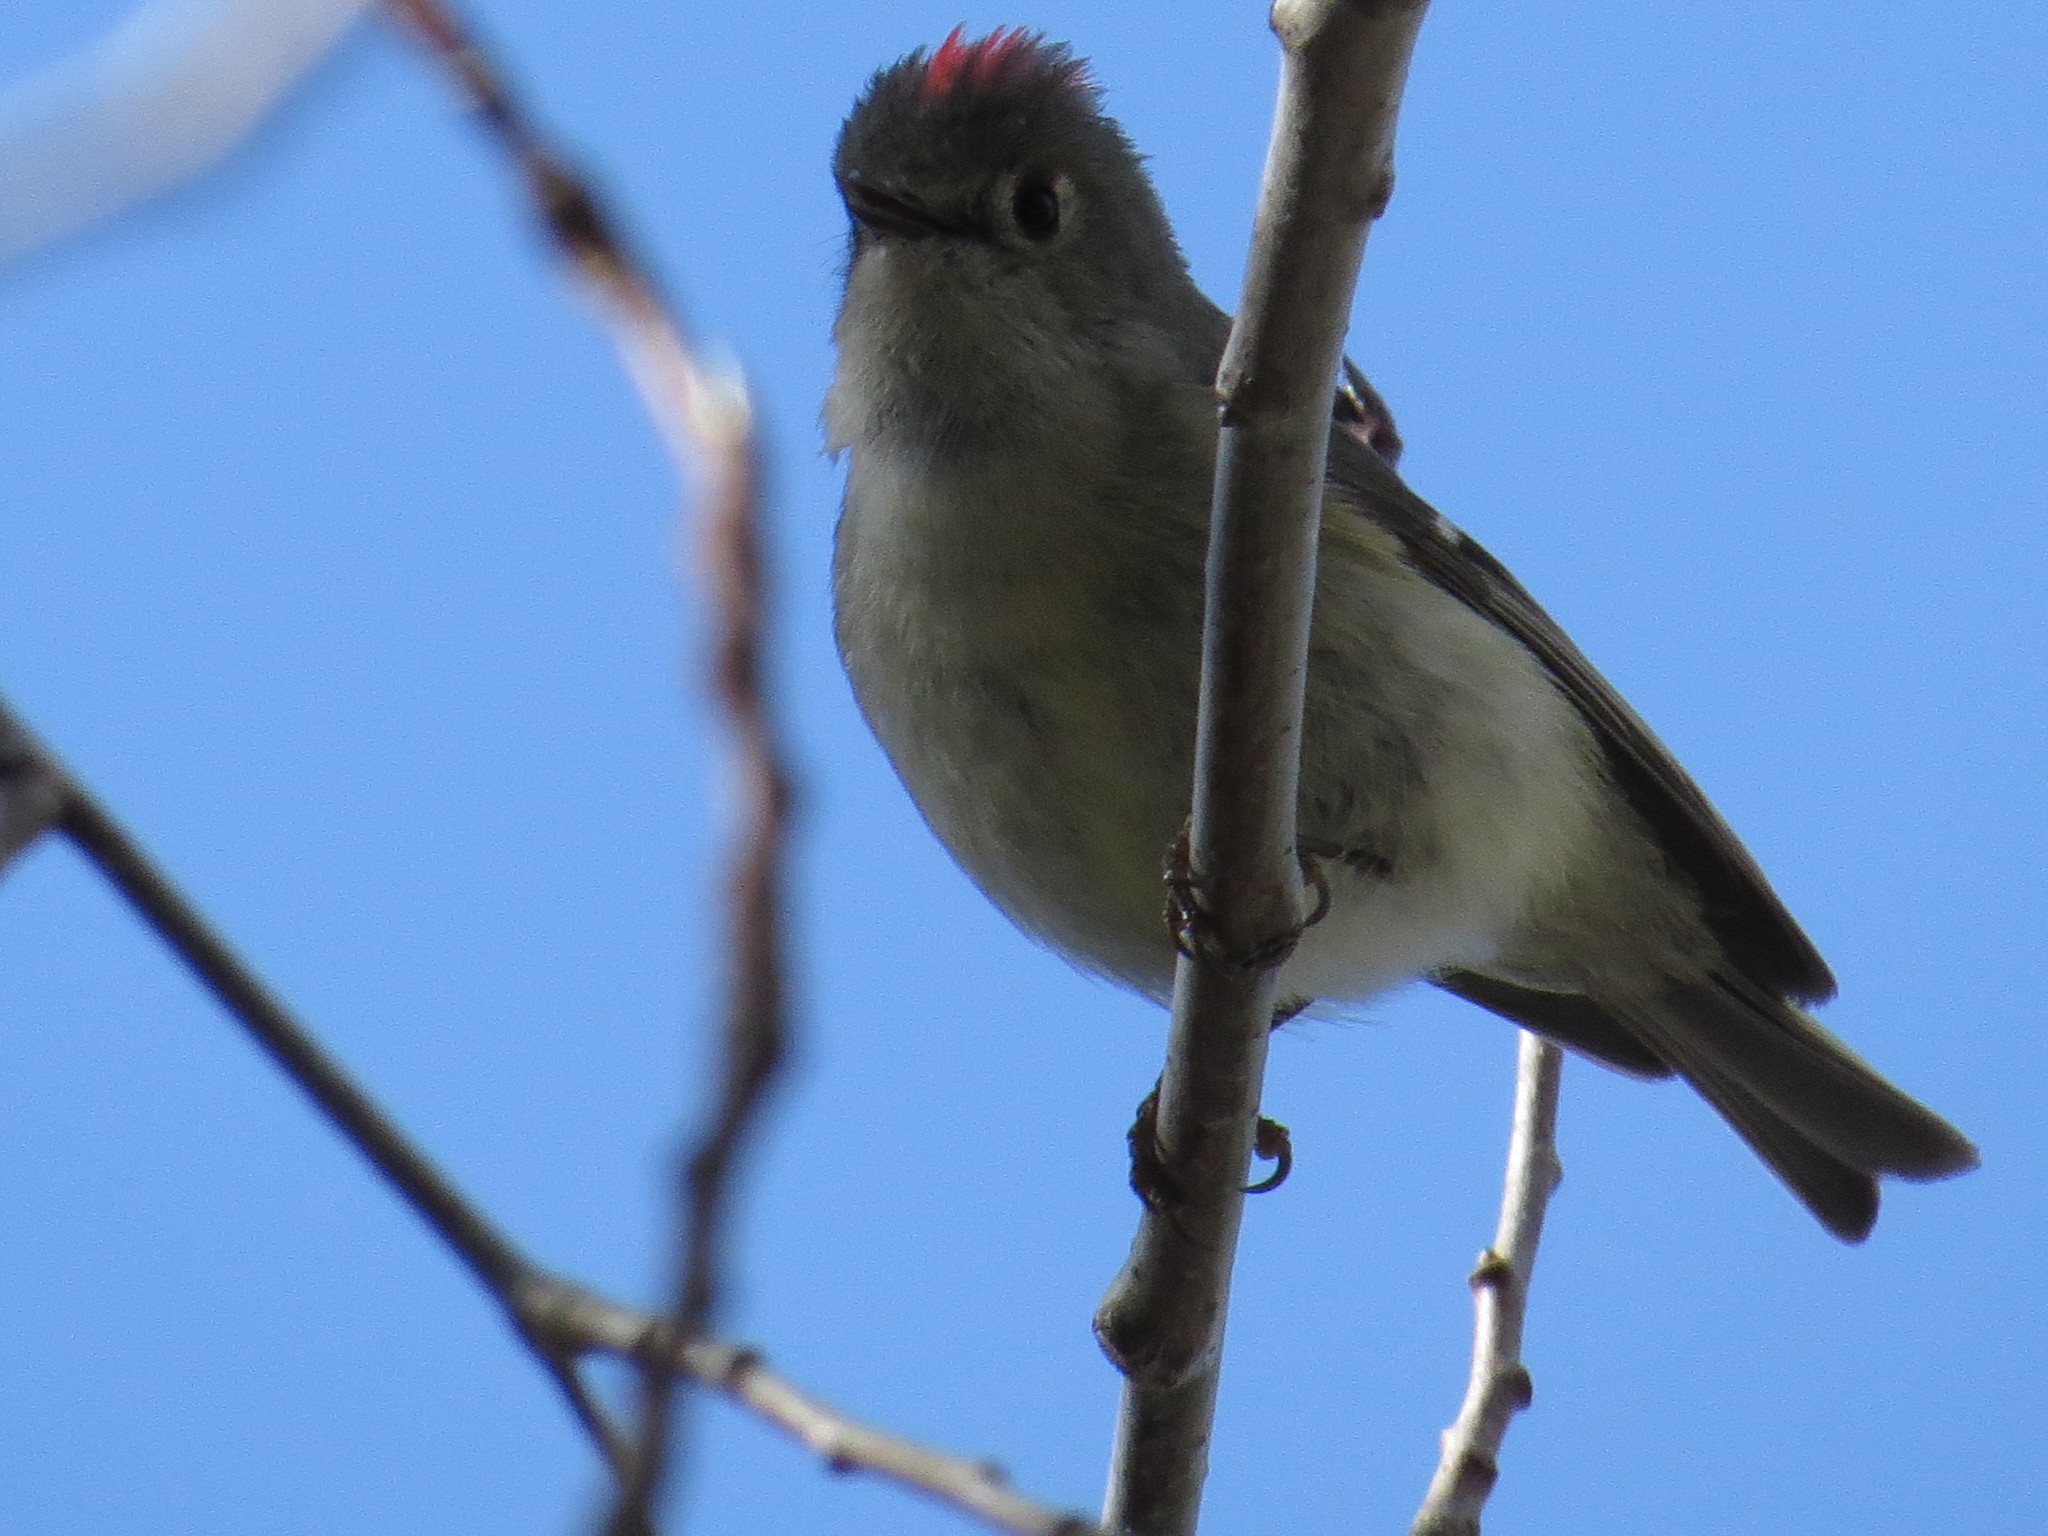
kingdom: Animalia
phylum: Chordata
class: Aves
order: Passeriformes
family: Regulidae
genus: Regulus
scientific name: Regulus calendula
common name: Ruby-crowned kinglet
